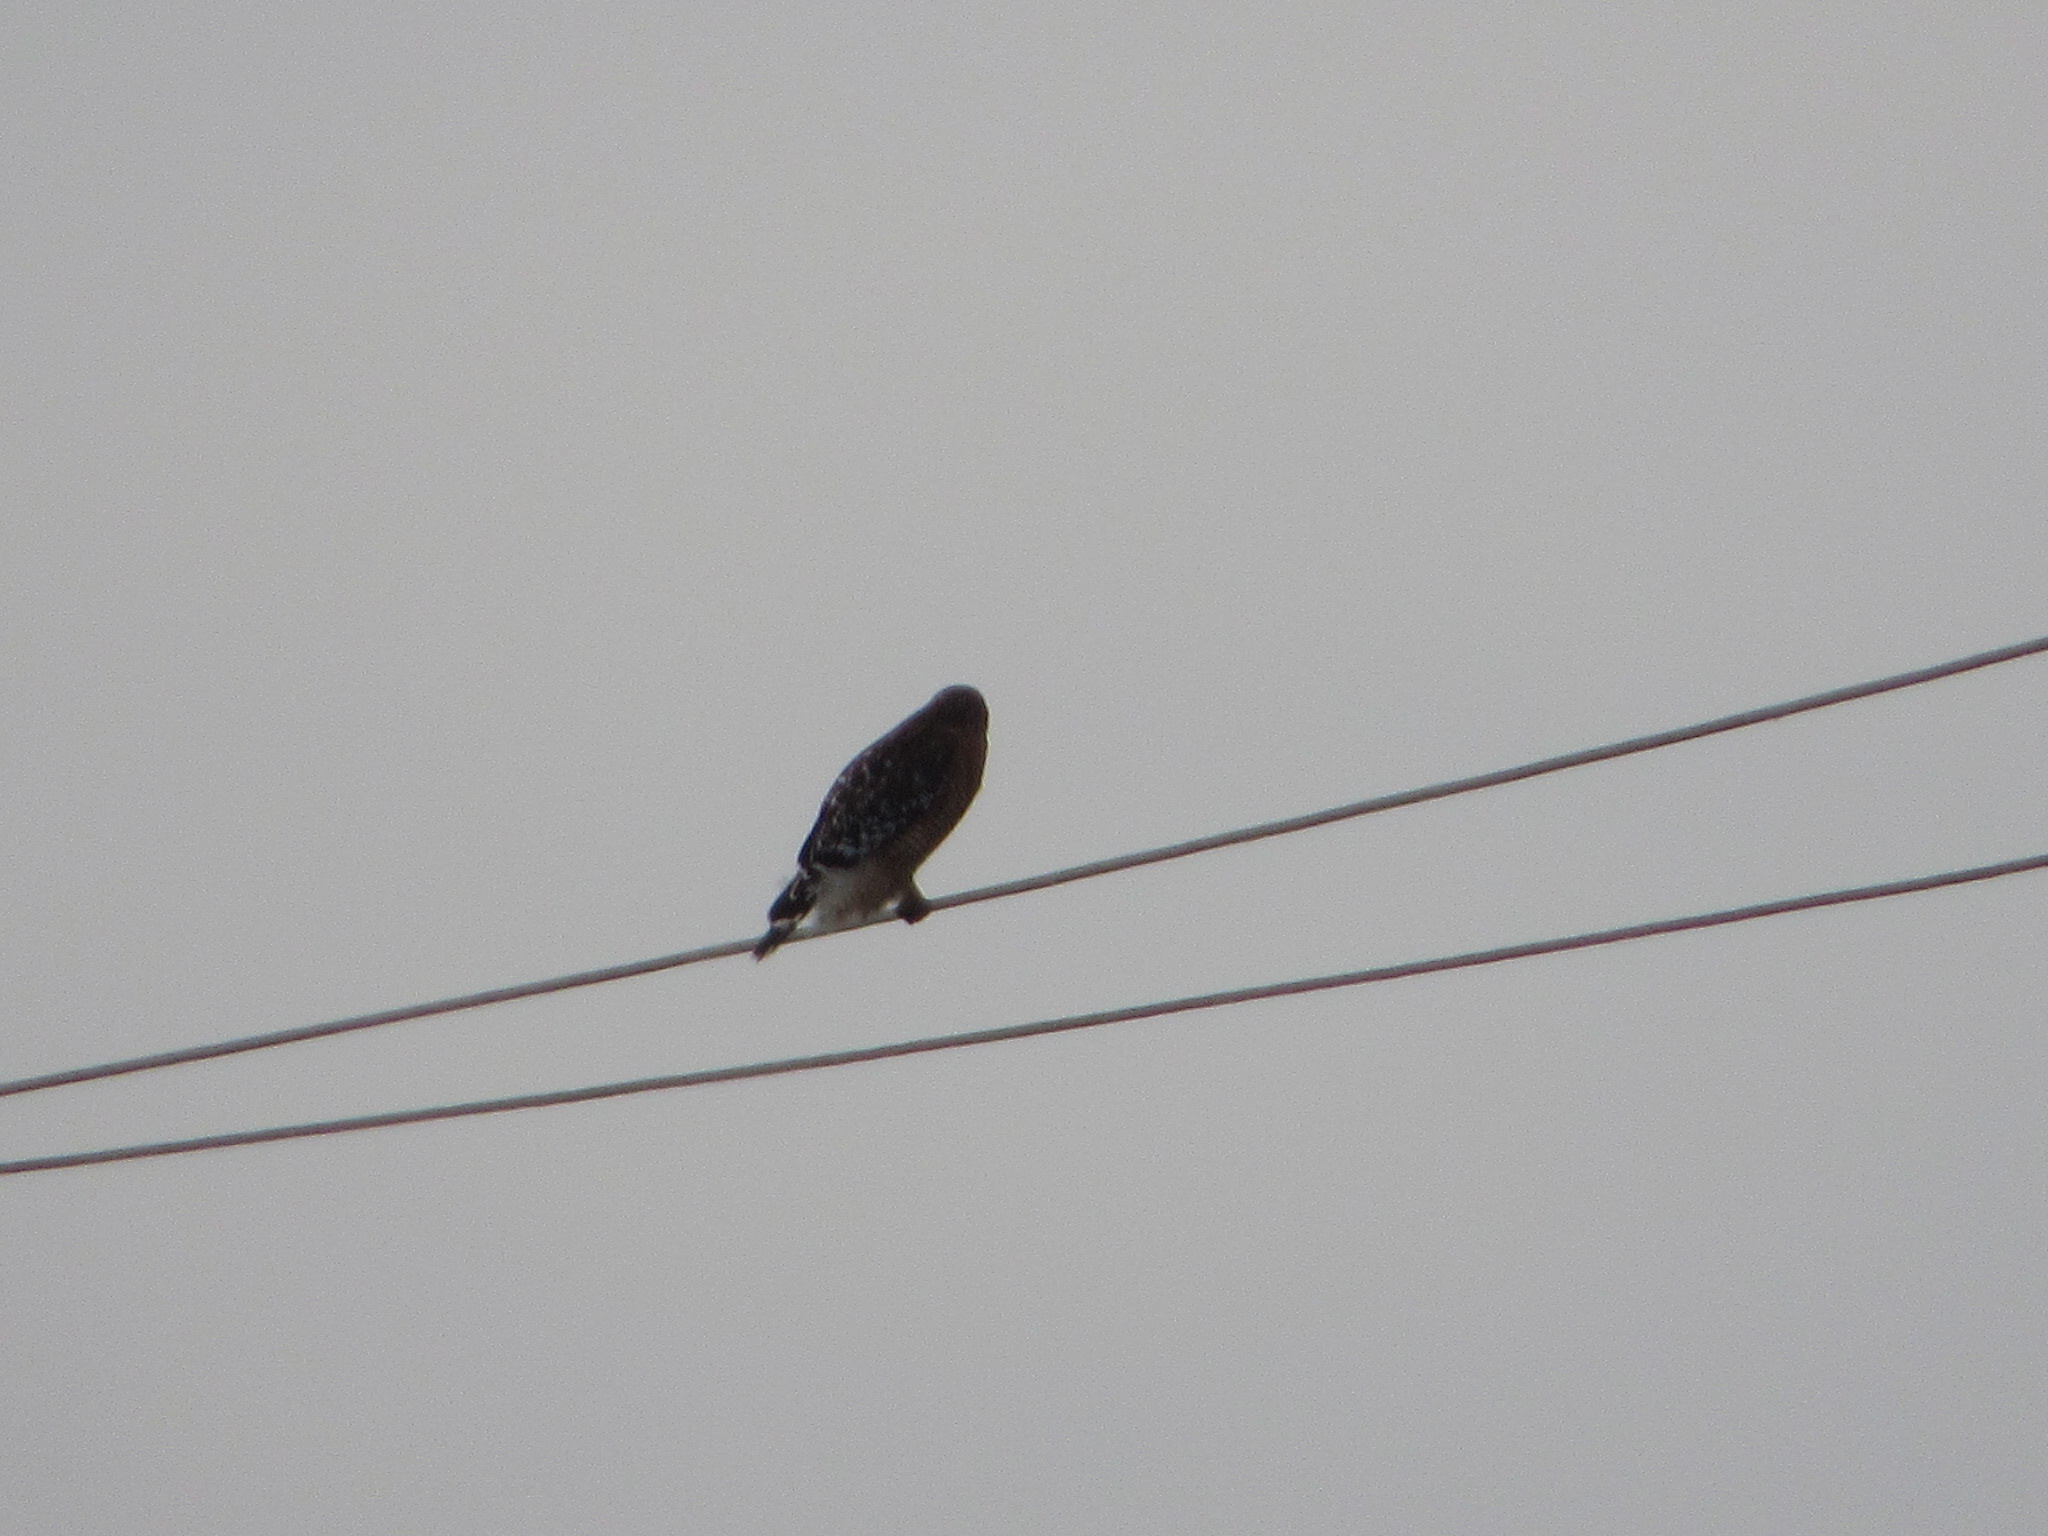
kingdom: Animalia
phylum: Chordata
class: Aves
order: Accipitriformes
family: Accipitridae
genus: Buteo
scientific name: Buteo lineatus
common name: Red-shouldered hawk
